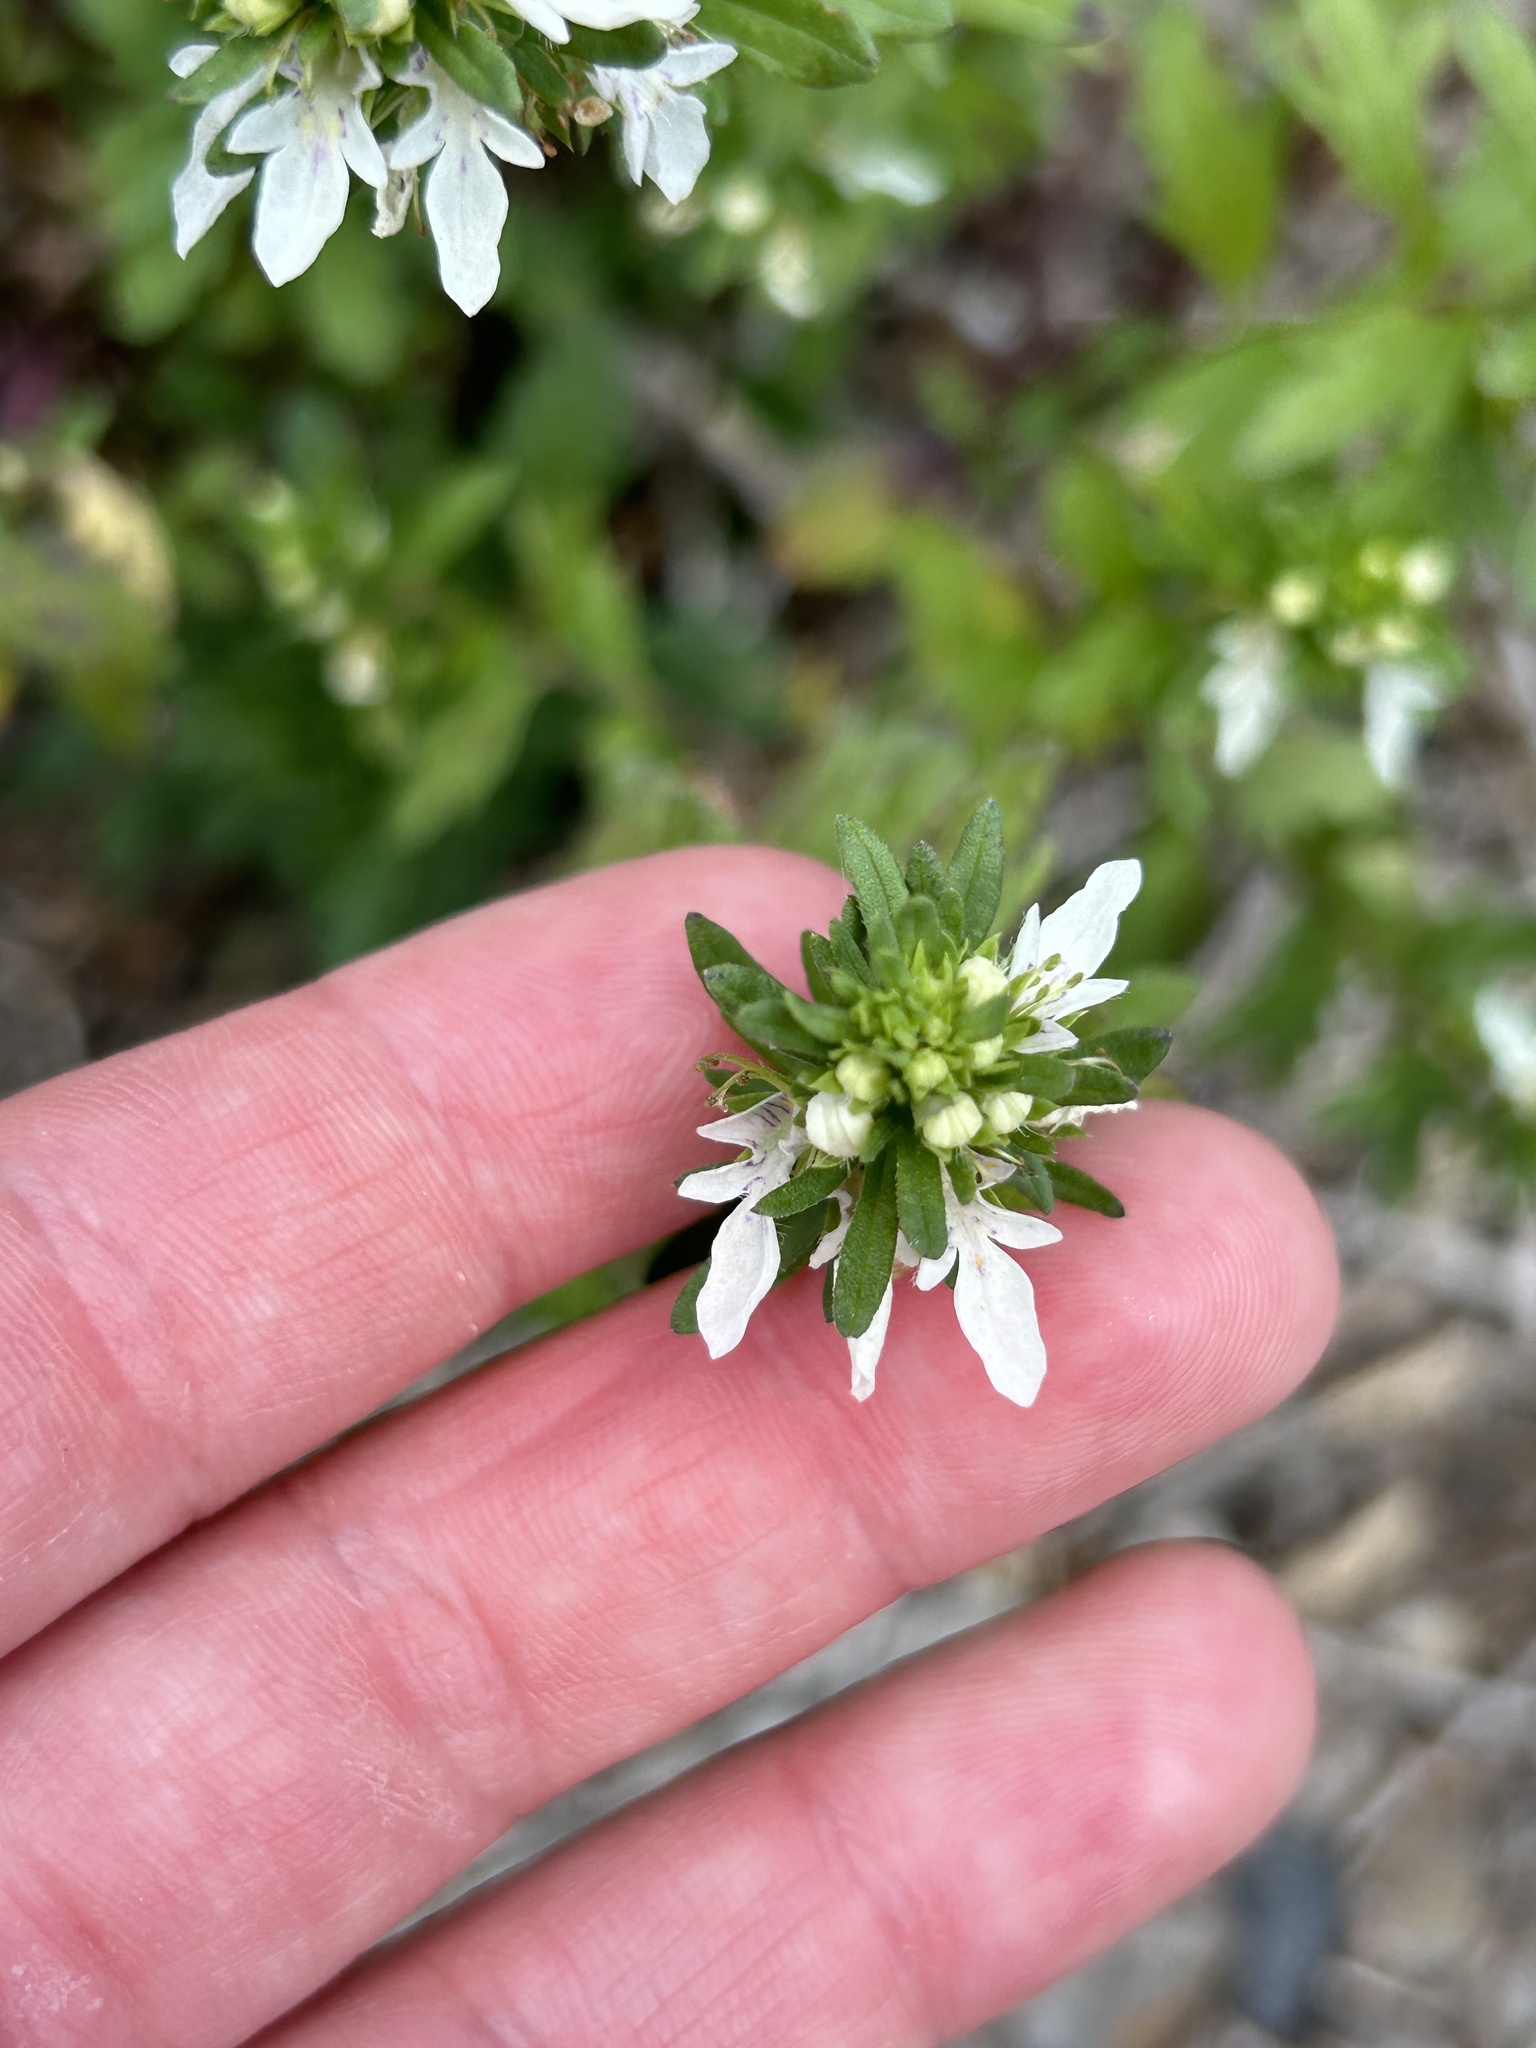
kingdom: Plantae
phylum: Tracheophyta
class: Magnoliopsida
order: Lamiales
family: Lamiaceae
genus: Teucrium
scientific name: Teucrium cubense
